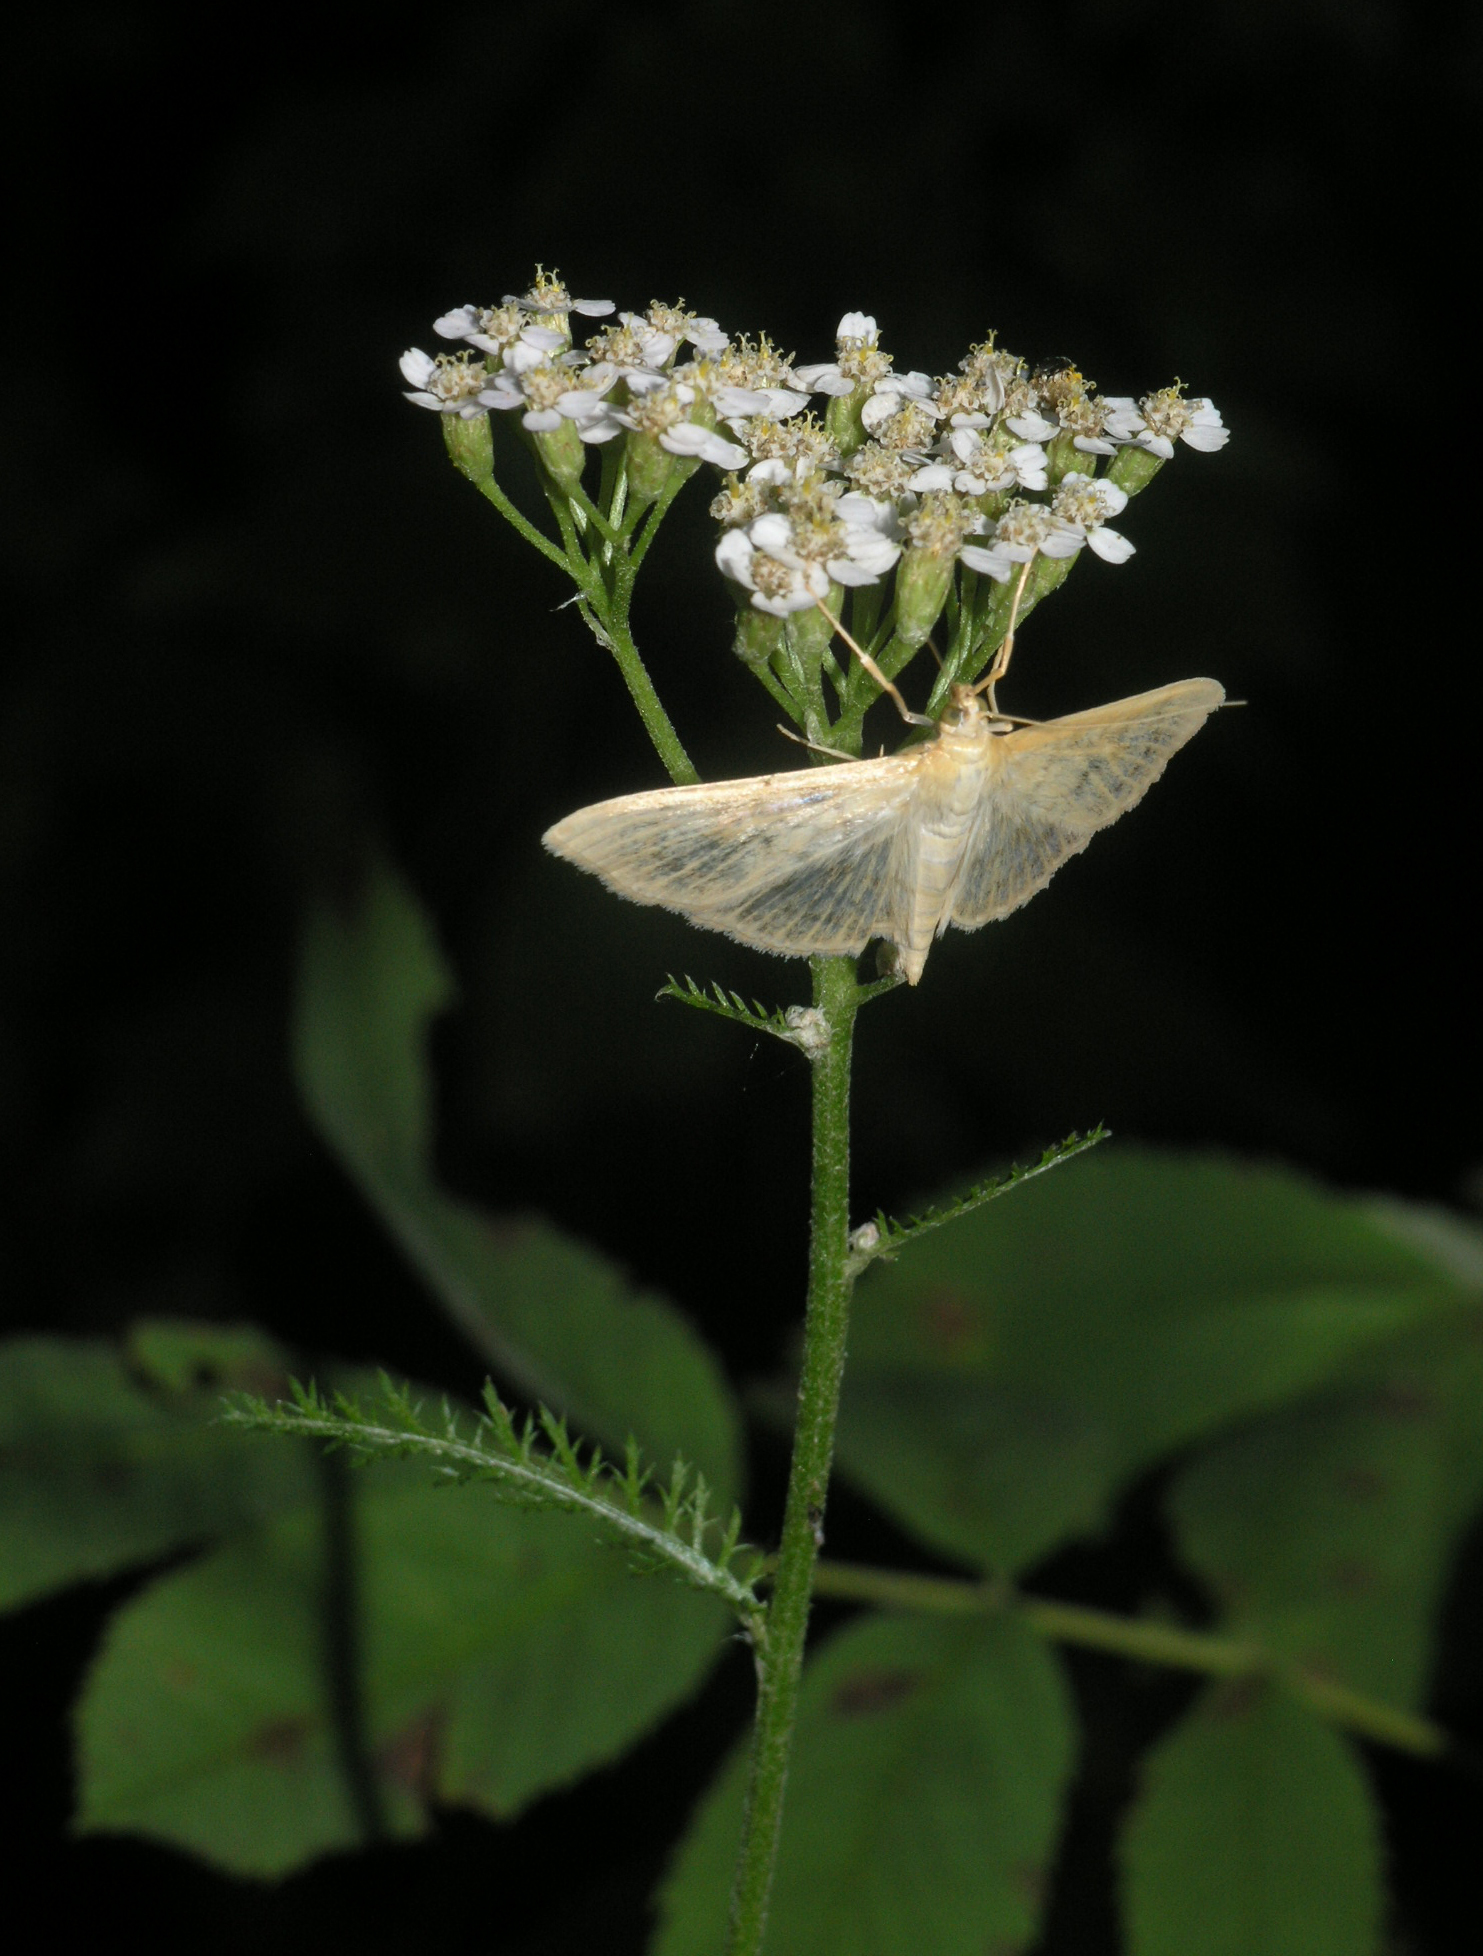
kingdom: Plantae
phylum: Tracheophyta
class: Magnoliopsida
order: Asterales
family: Asteraceae
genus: Achillea
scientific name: Achillea millefolium
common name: Yarrow
